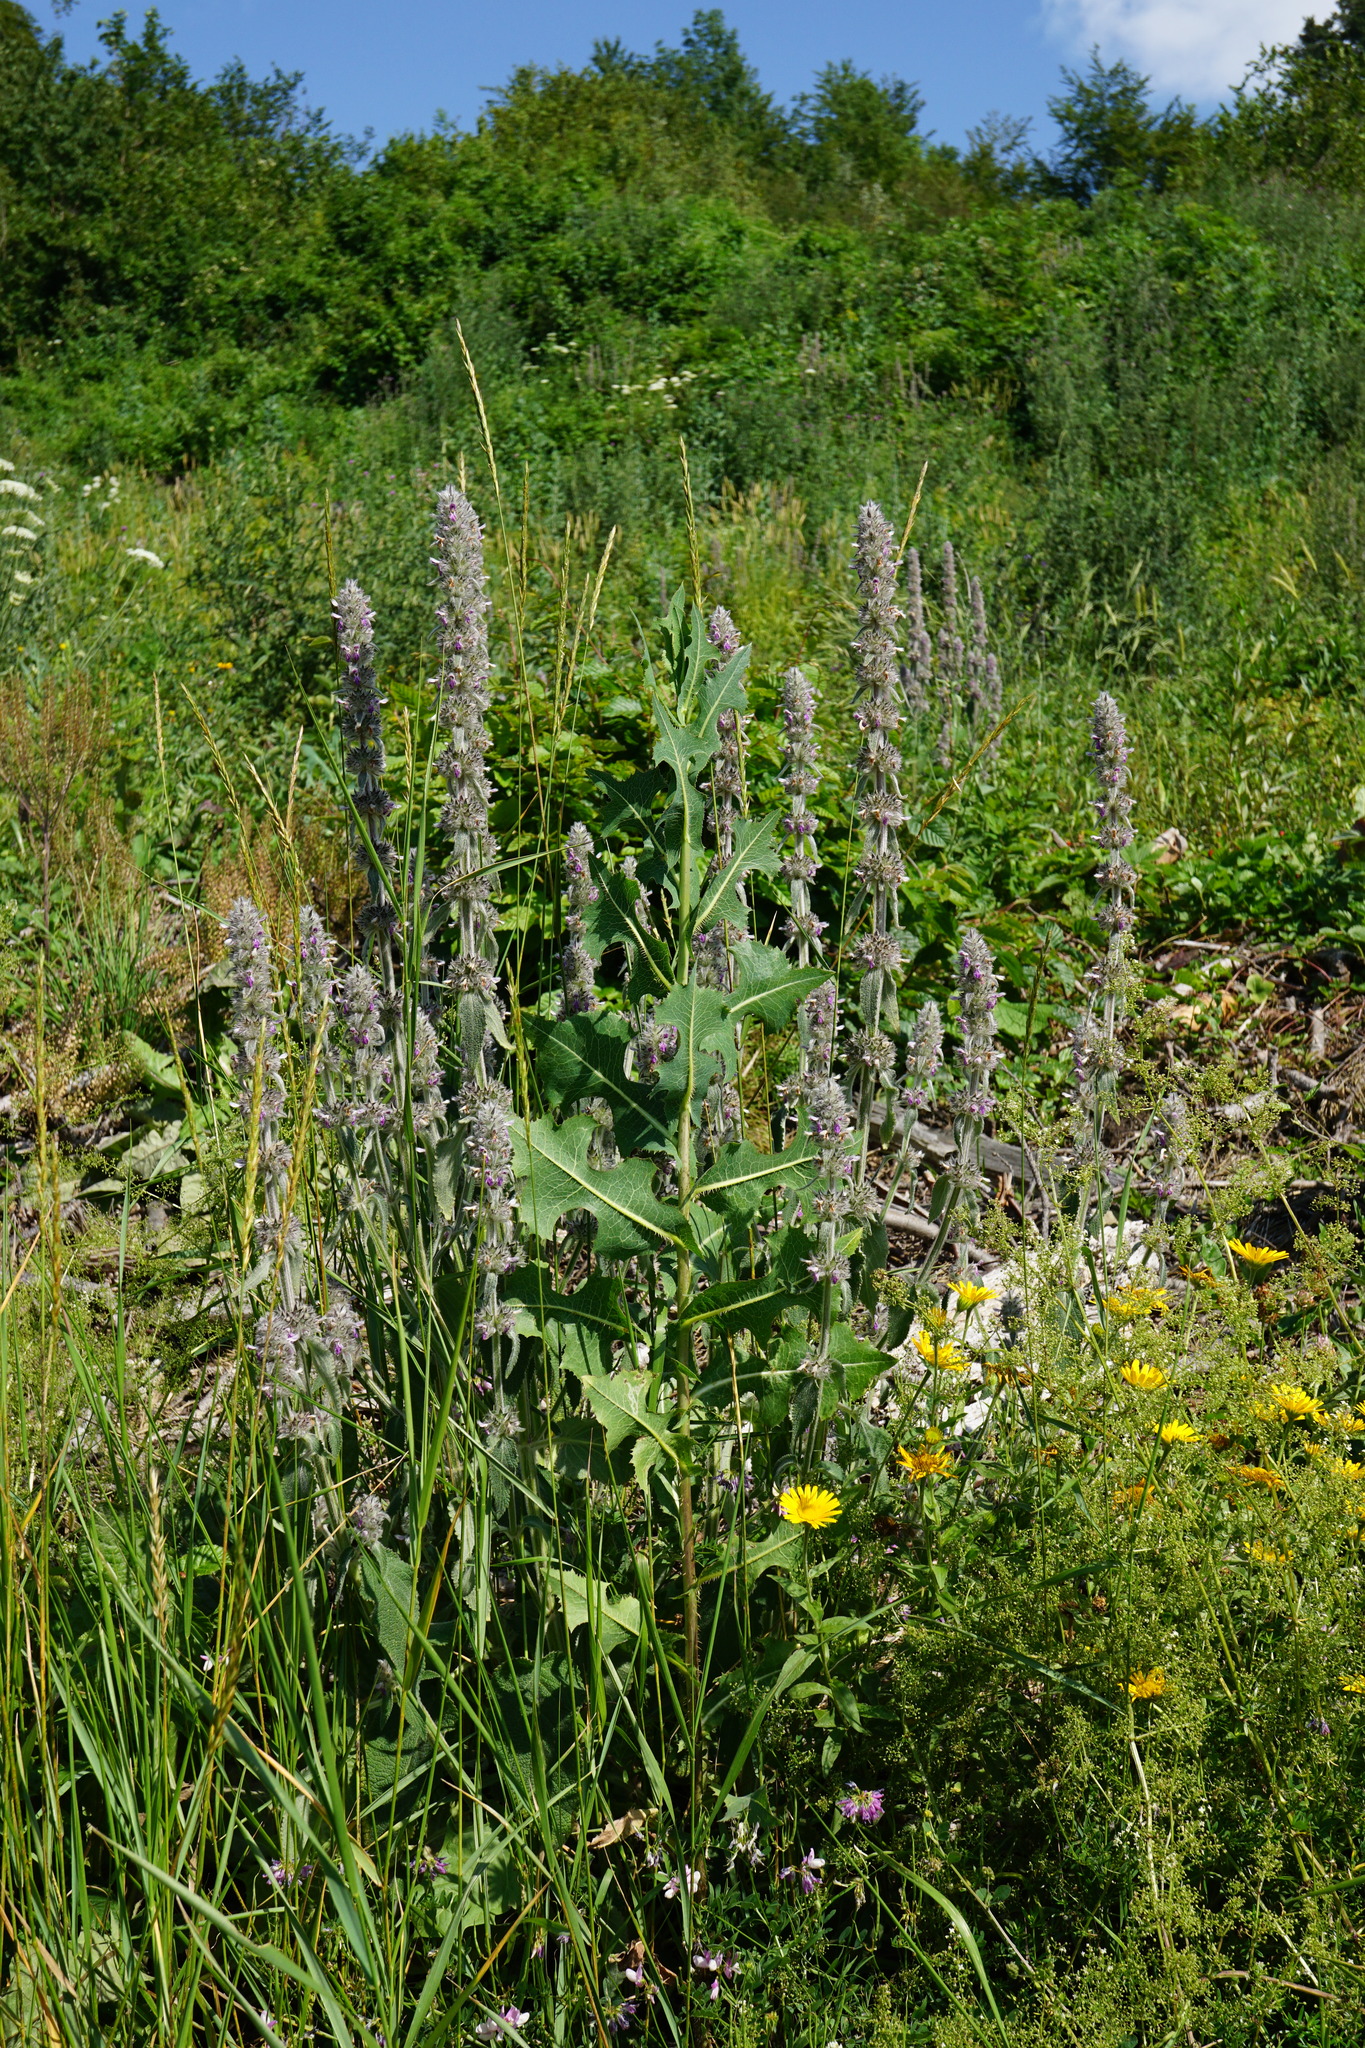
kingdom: Plantae
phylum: Tracheophyta
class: Magnoliopsida
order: Lamiales
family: Lamiaceae
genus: Stachys
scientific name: Stachys germanica
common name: Downy woundwort
